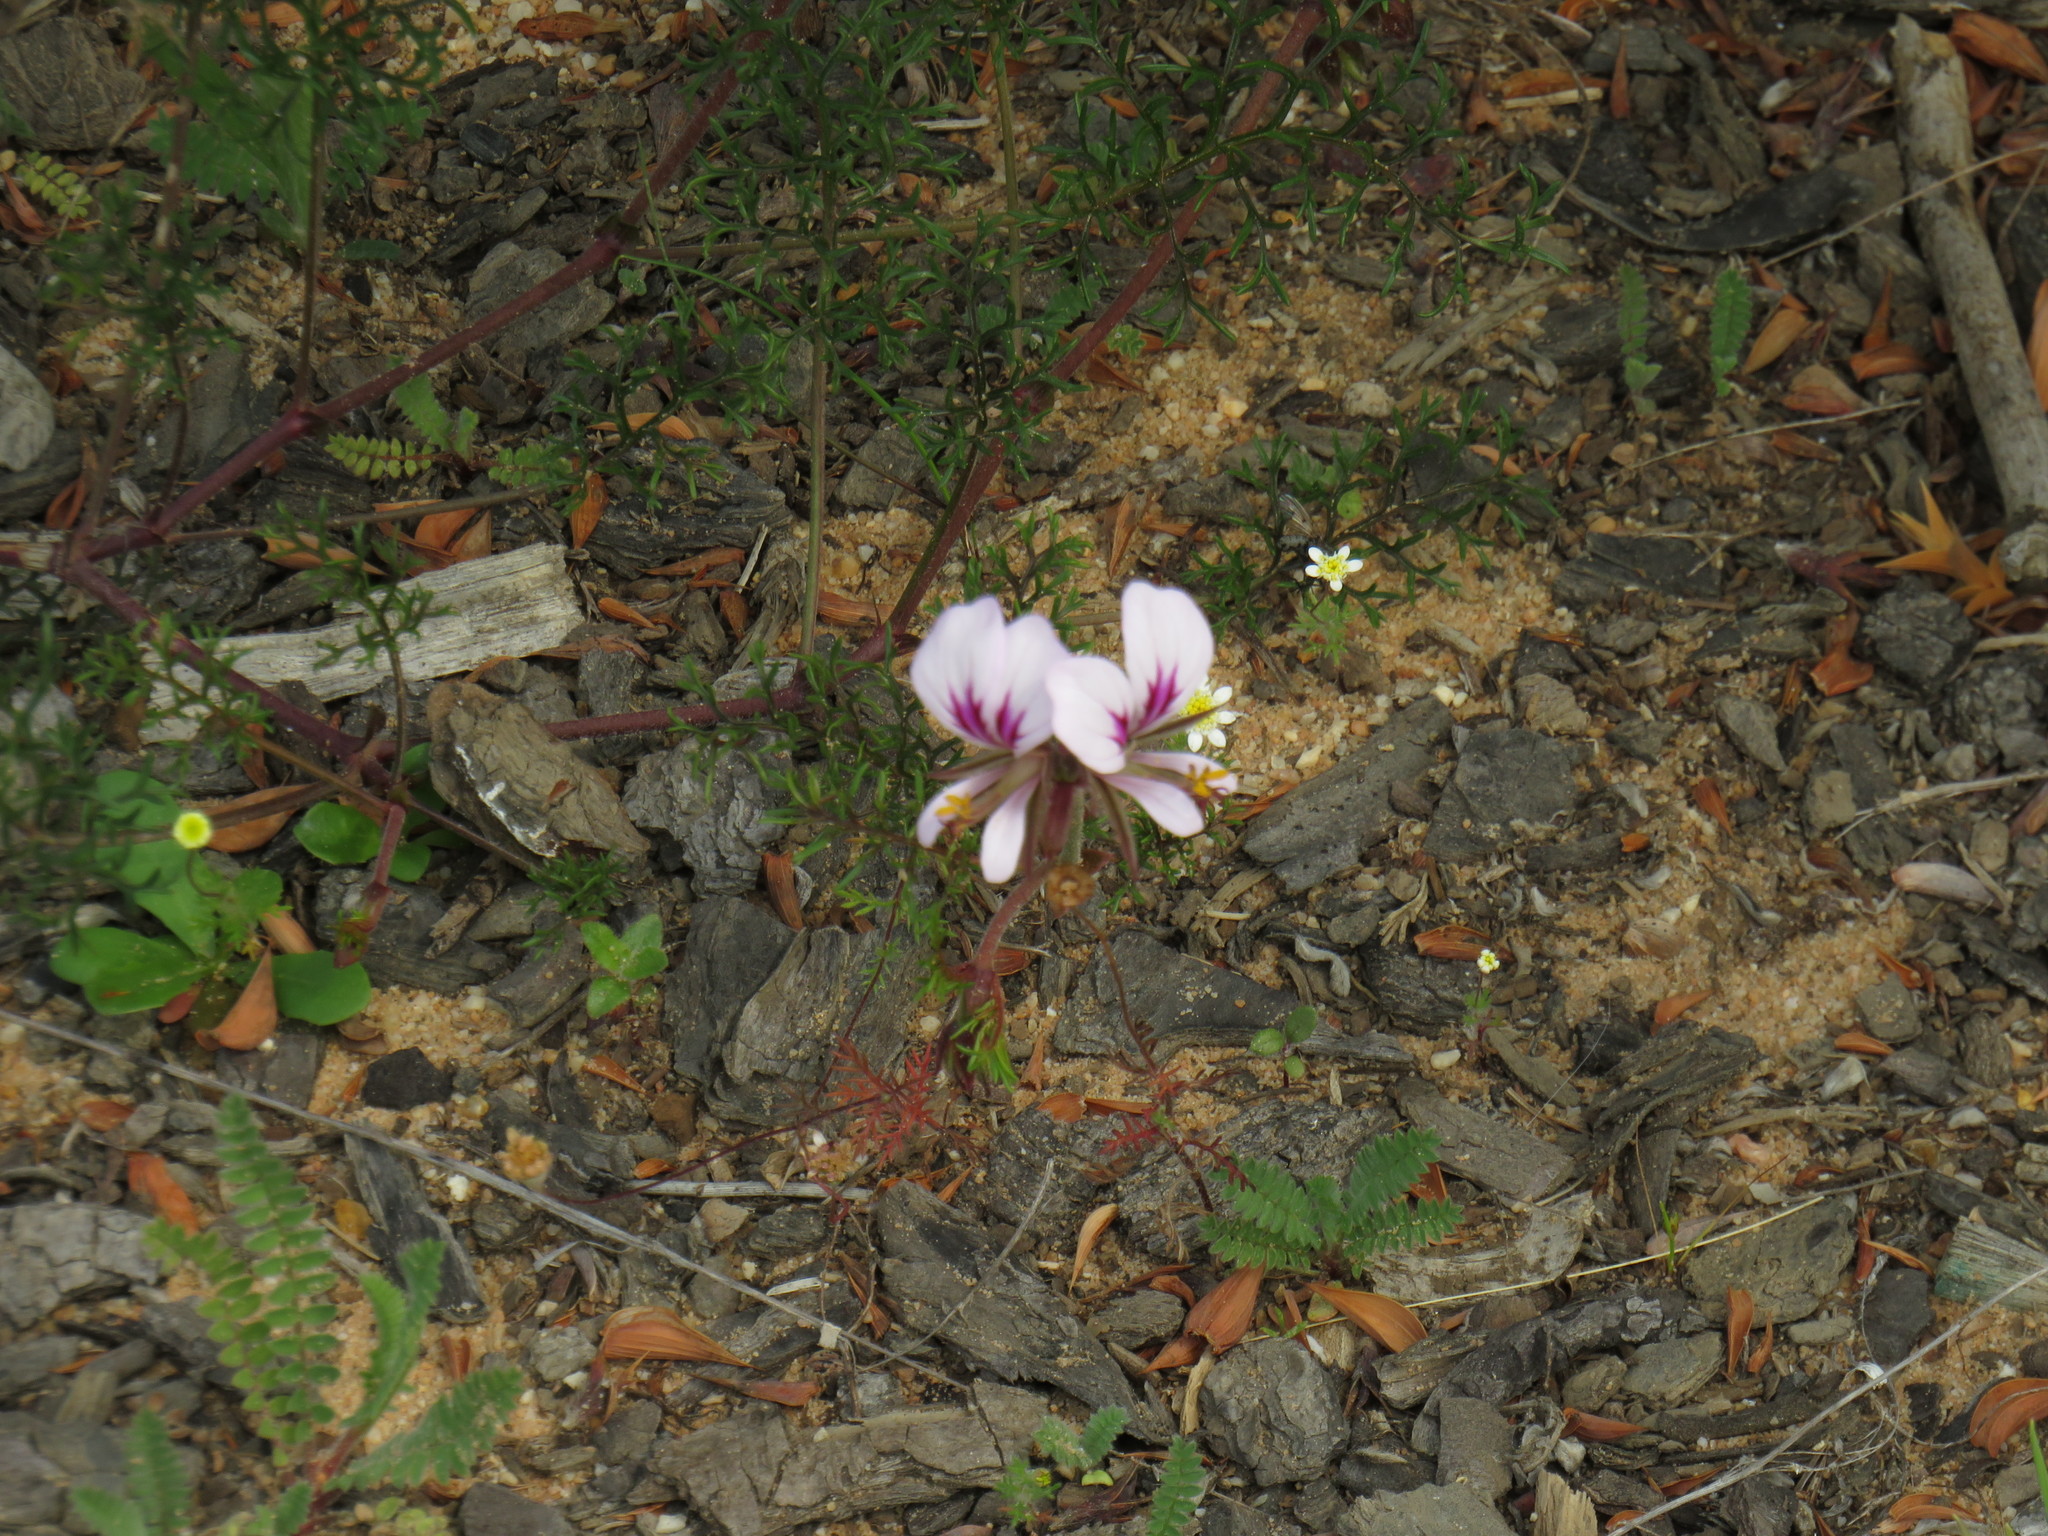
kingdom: Plantae
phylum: Tracheophyta
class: Magnoliopsida
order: Geraniales
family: Geraniaceae
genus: Pelargonium
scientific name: Pelargonium myrrhifolium
